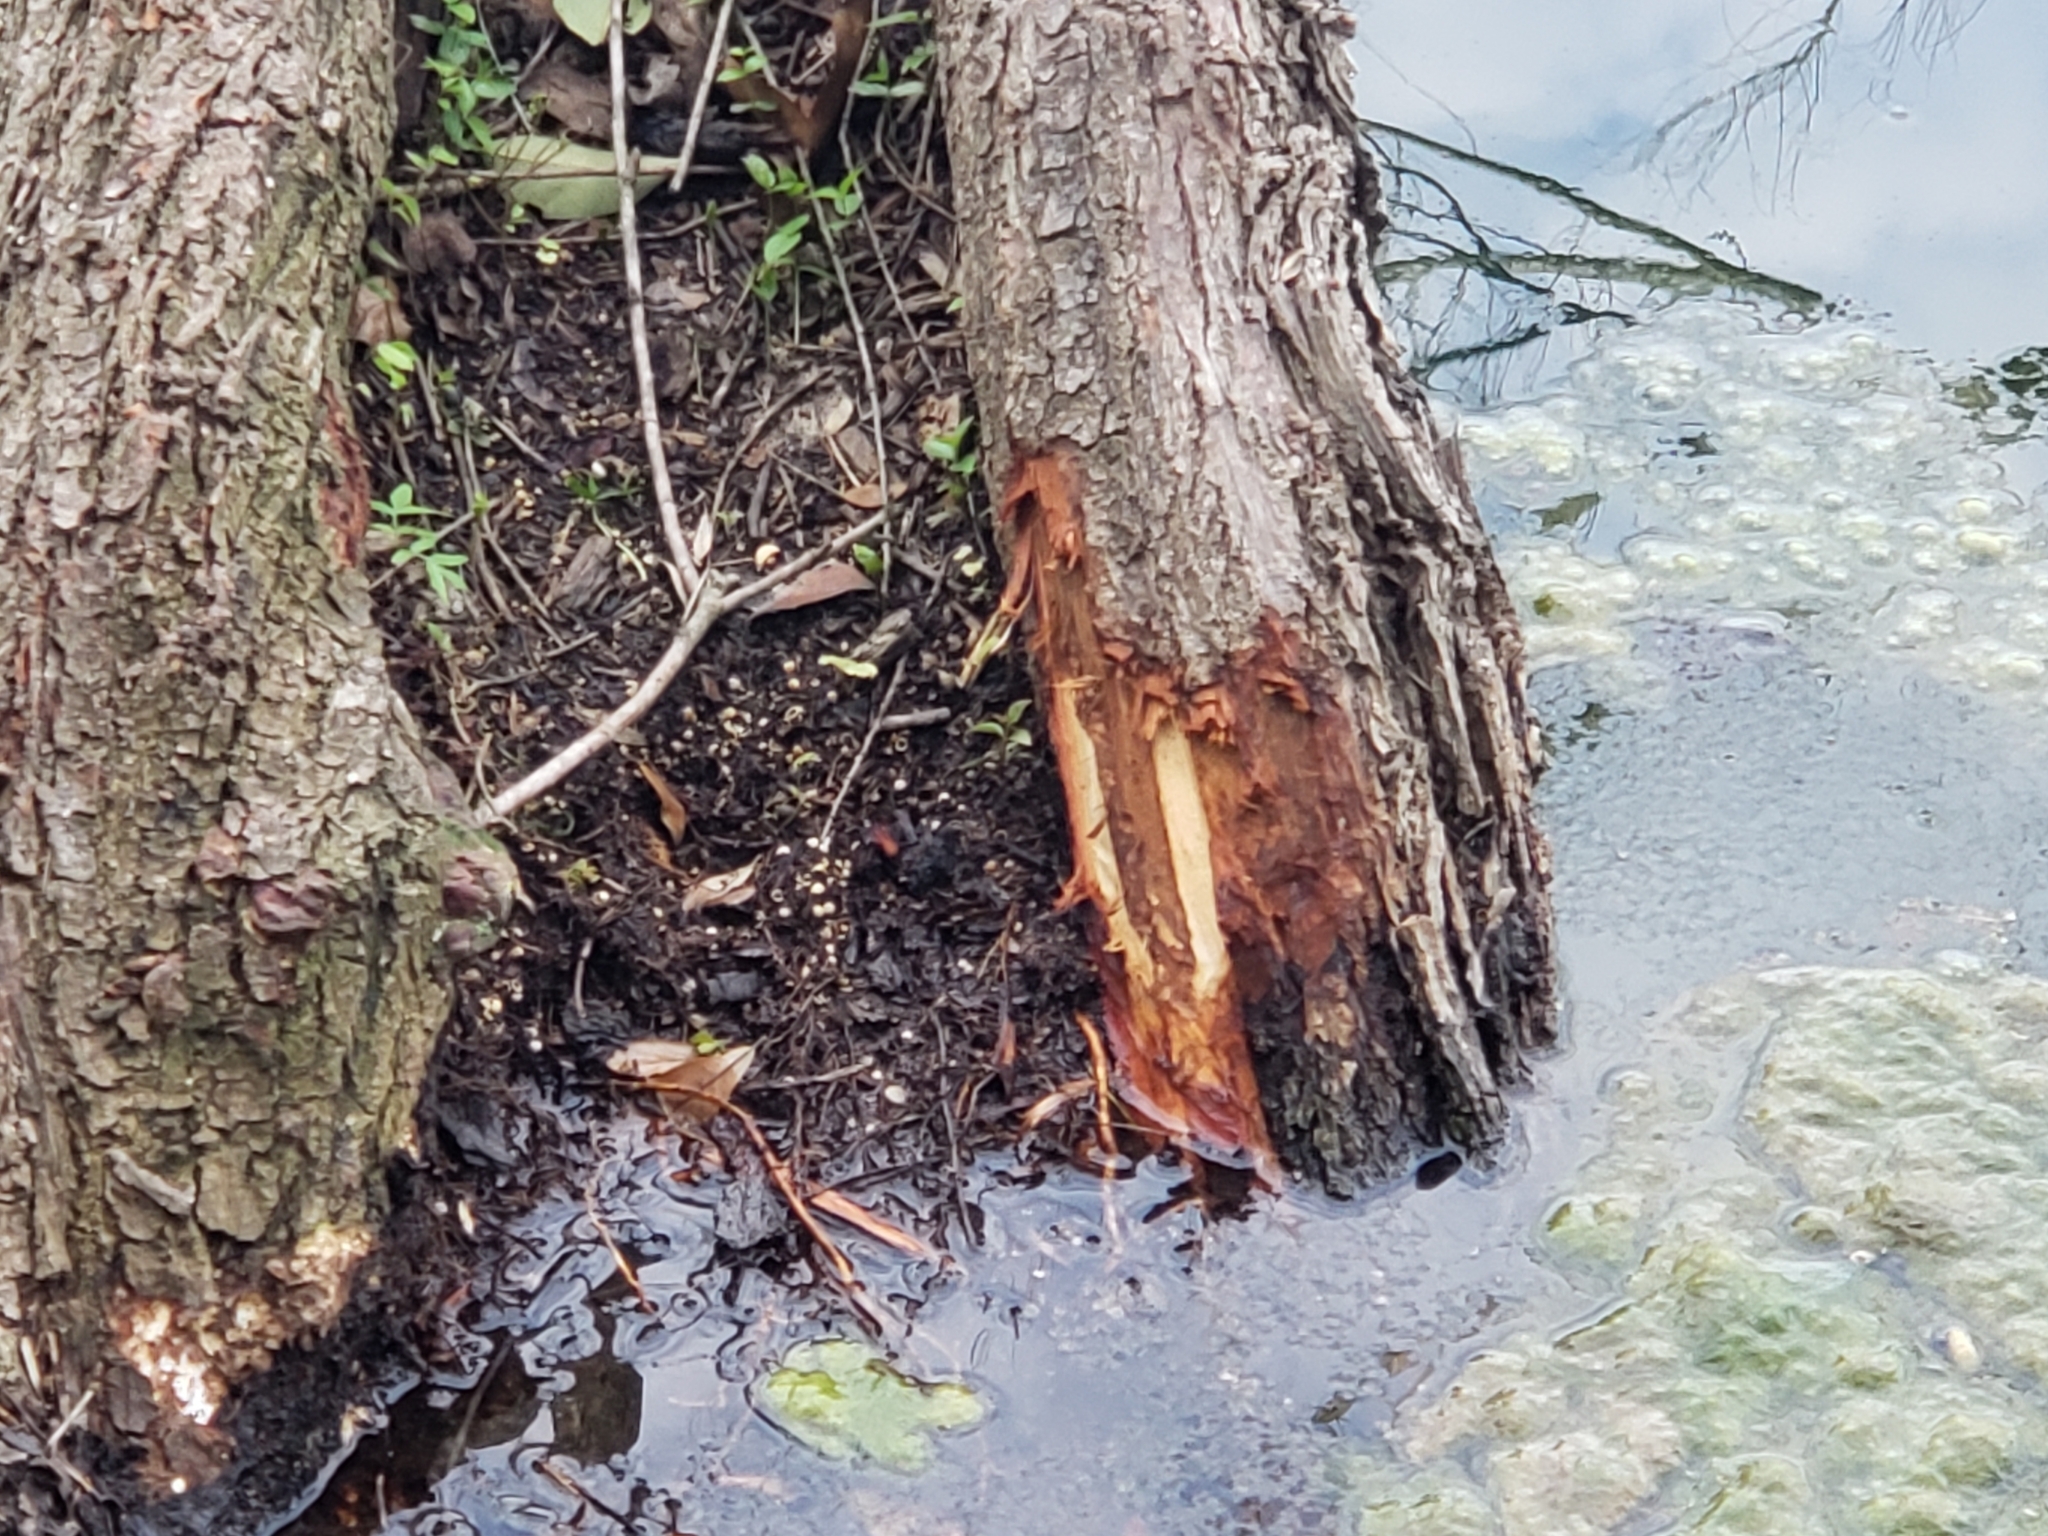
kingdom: Animalia
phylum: Chordata
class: Mammalia
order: Rodentia
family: Castoridae
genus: Castor
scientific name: Castor canadensis
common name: American beaver
